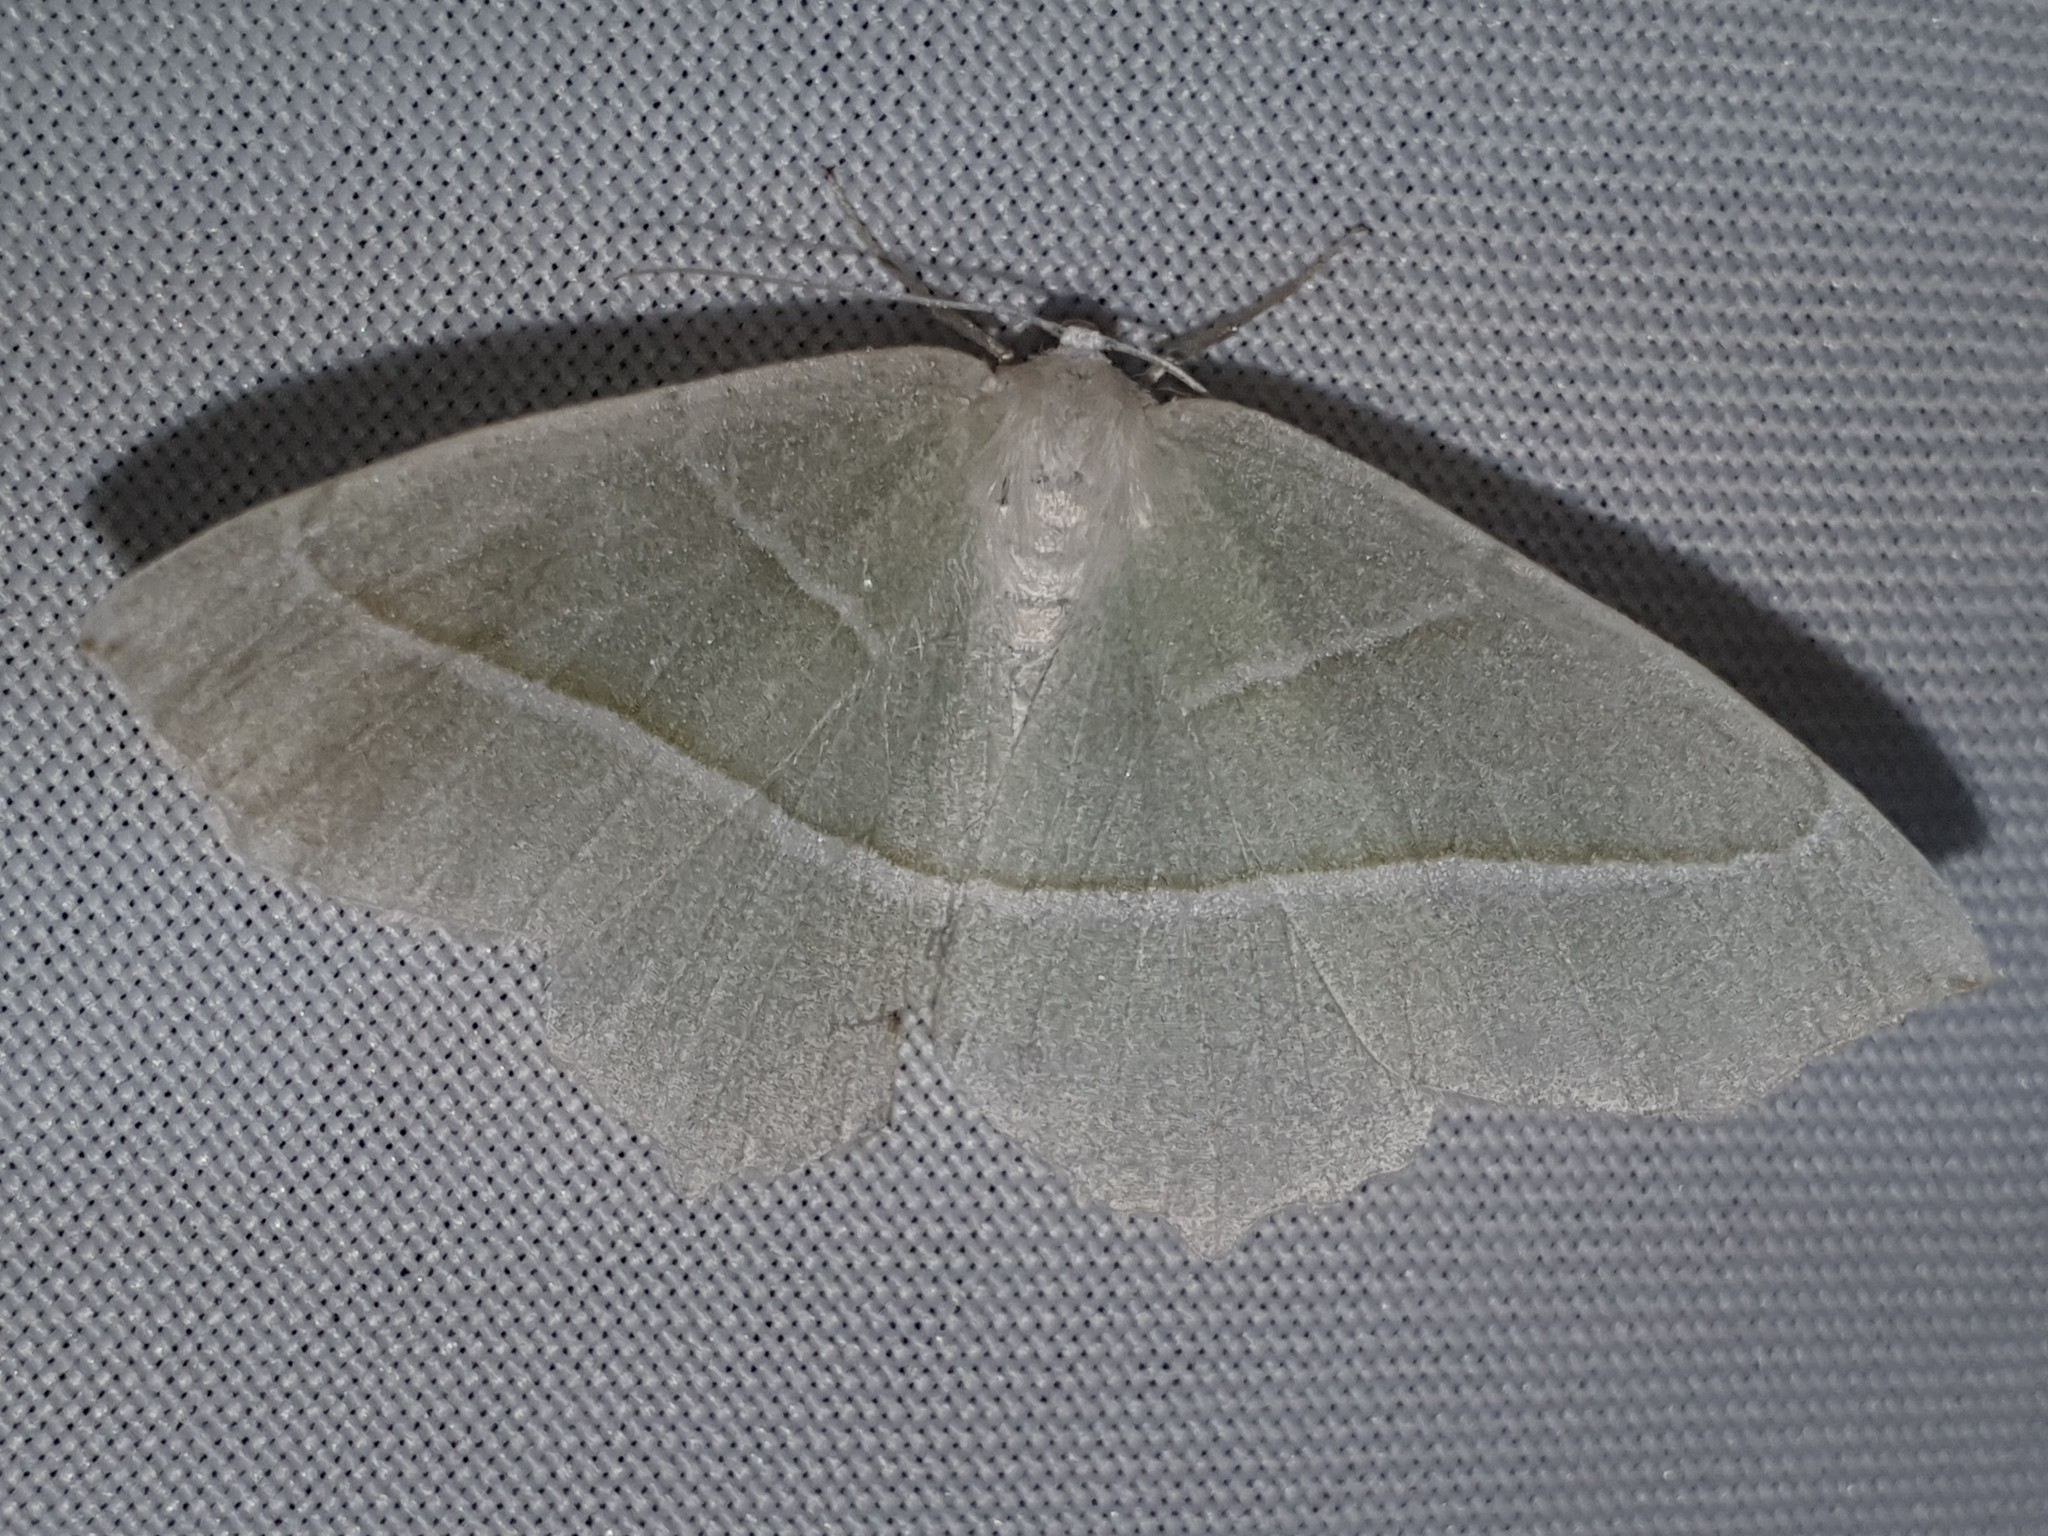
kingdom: Animalia
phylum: Arthropoda
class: Insecta
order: Lepidoptera
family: Geometridae
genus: Campaea
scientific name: Campaea margaritaria
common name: Light emerald
